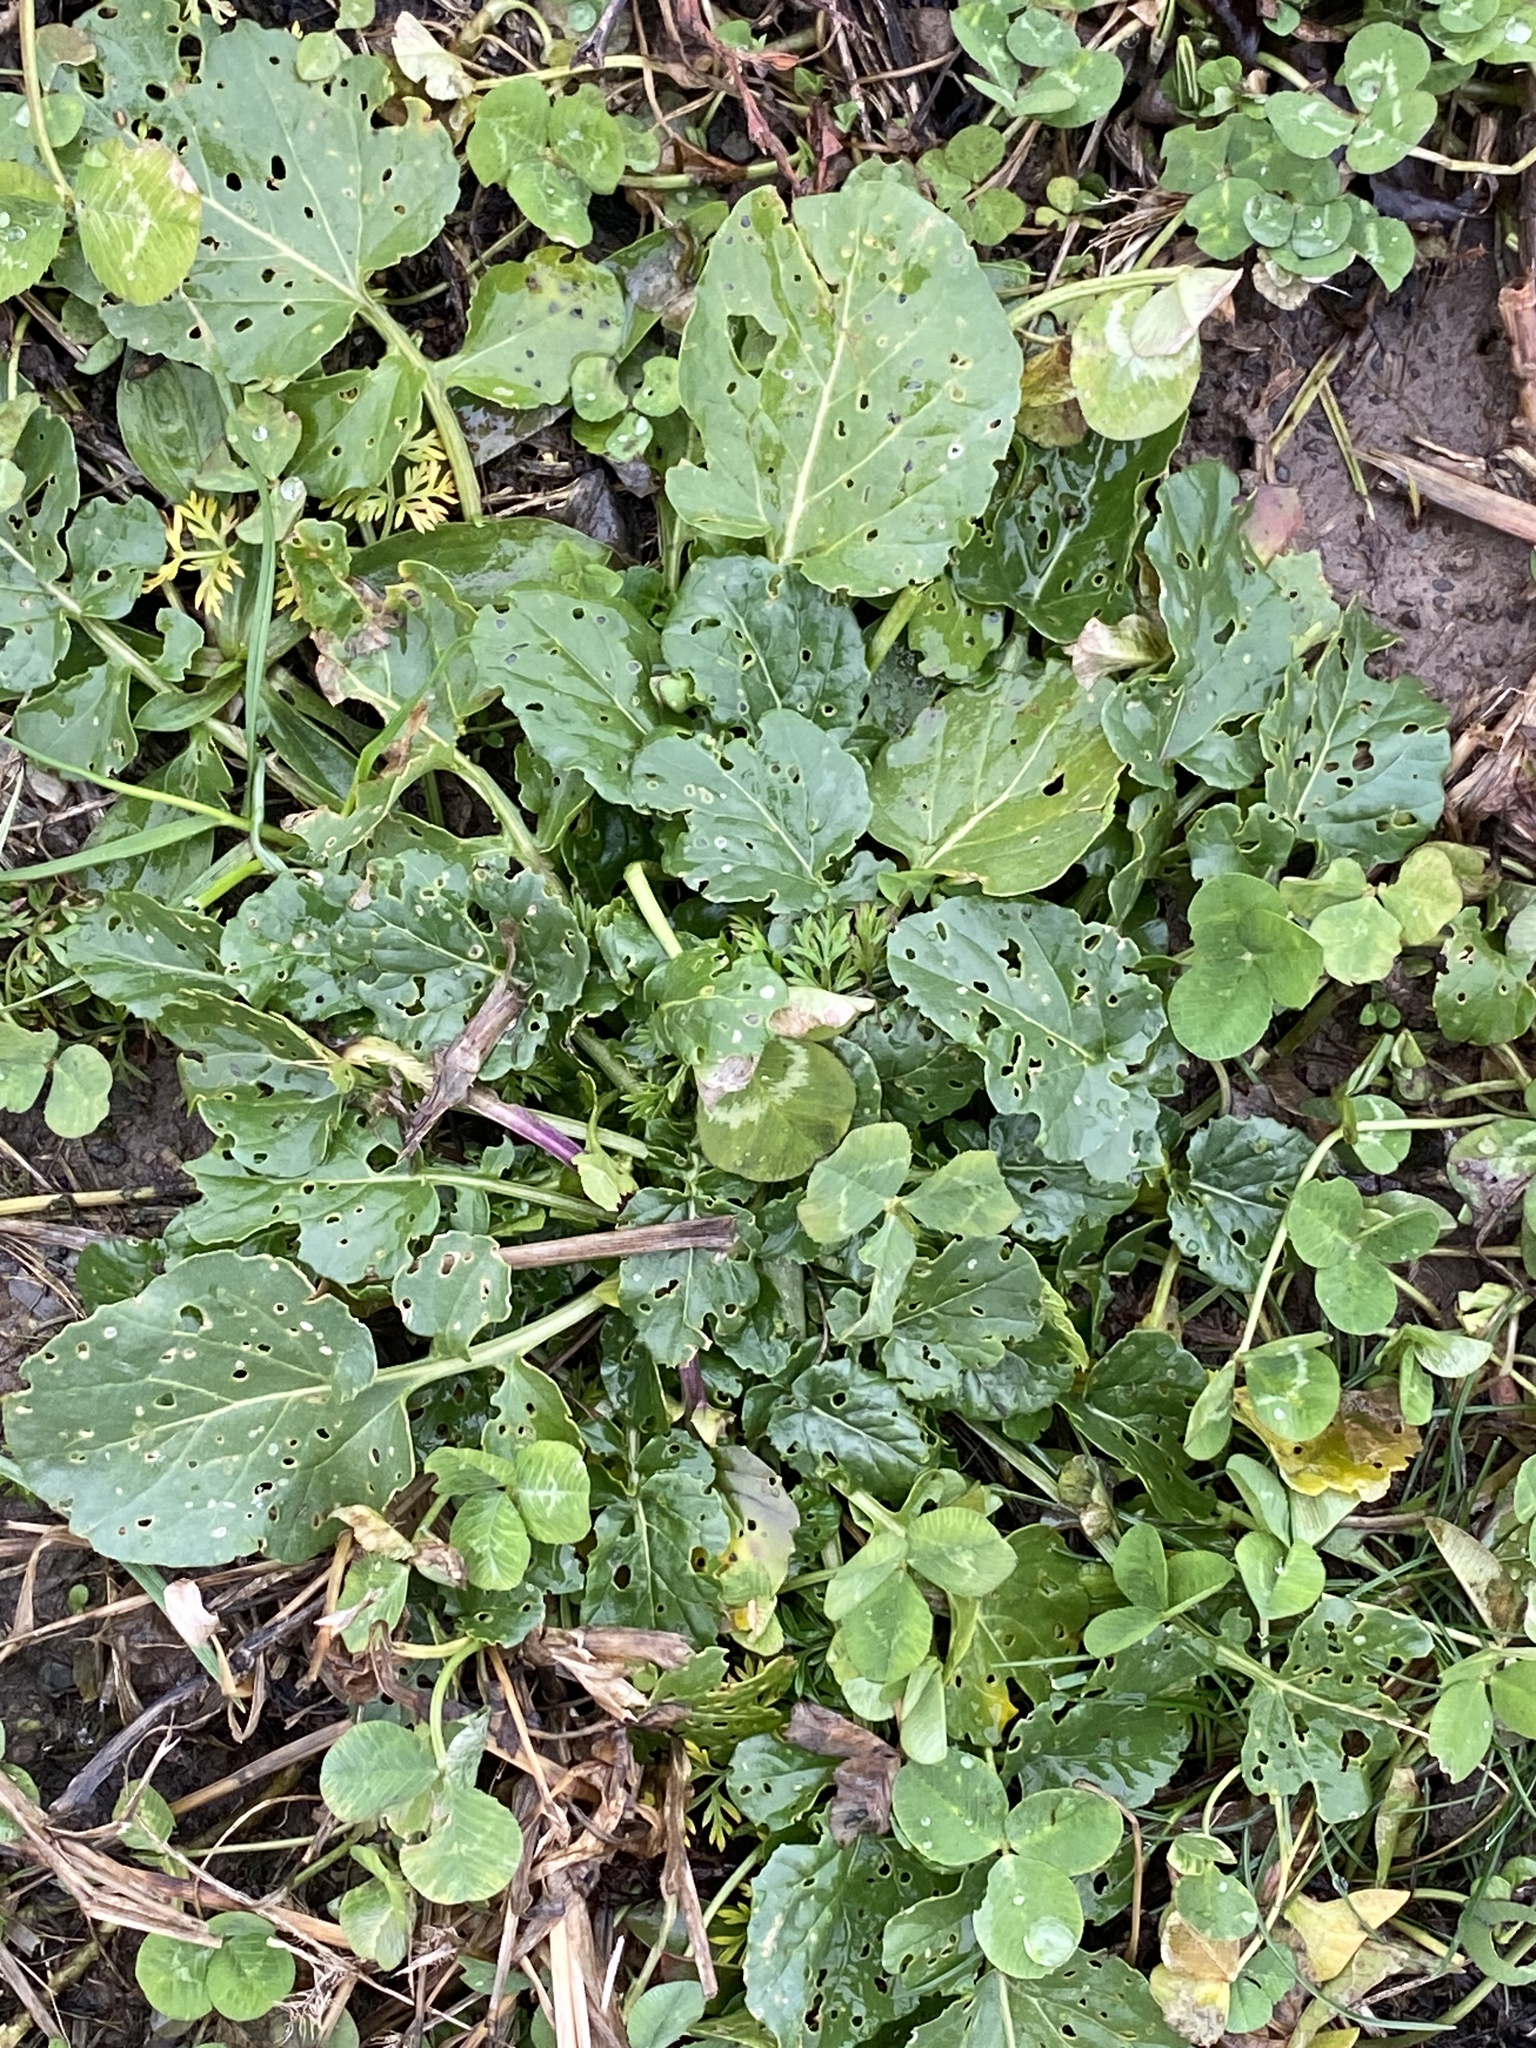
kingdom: Plantae
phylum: Tracheophyta
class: Magnoliopsida
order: Brassicales
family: Brassicaceae
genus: Barbarea
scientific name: Barbarea vulgaris
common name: Cressy-greens
